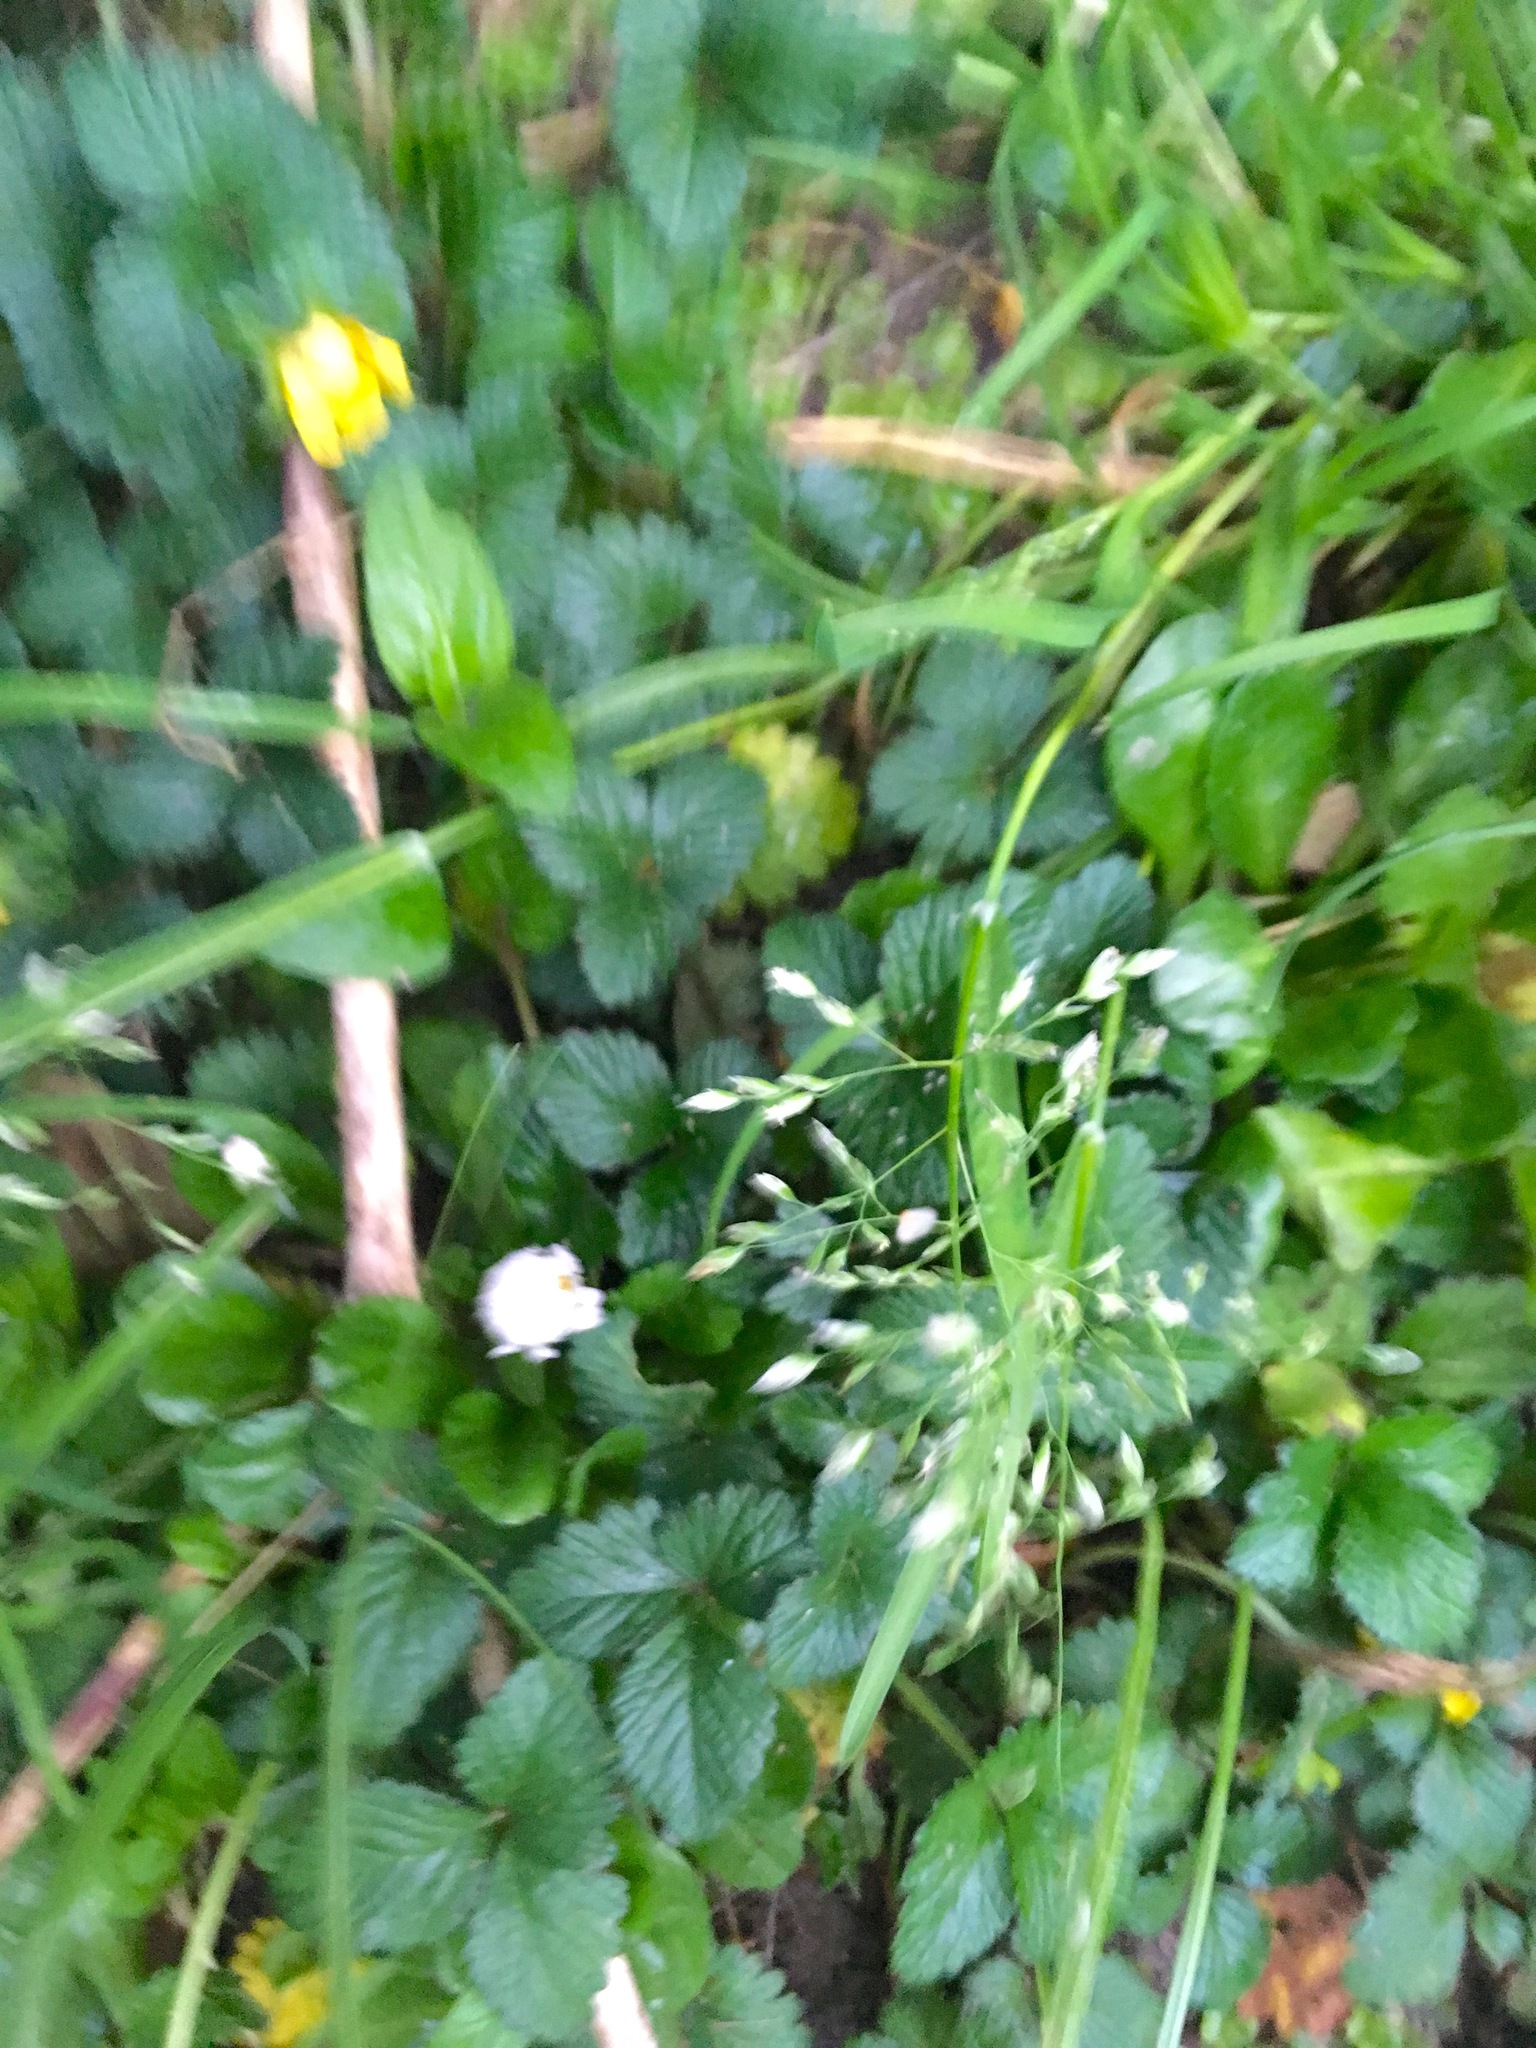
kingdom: Plantae
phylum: Tracheophyta
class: Magnoliopsida
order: Rosales
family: Rosaceae
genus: Potentilla
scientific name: Potentilla indica
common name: Yellow-flowered strawberry
